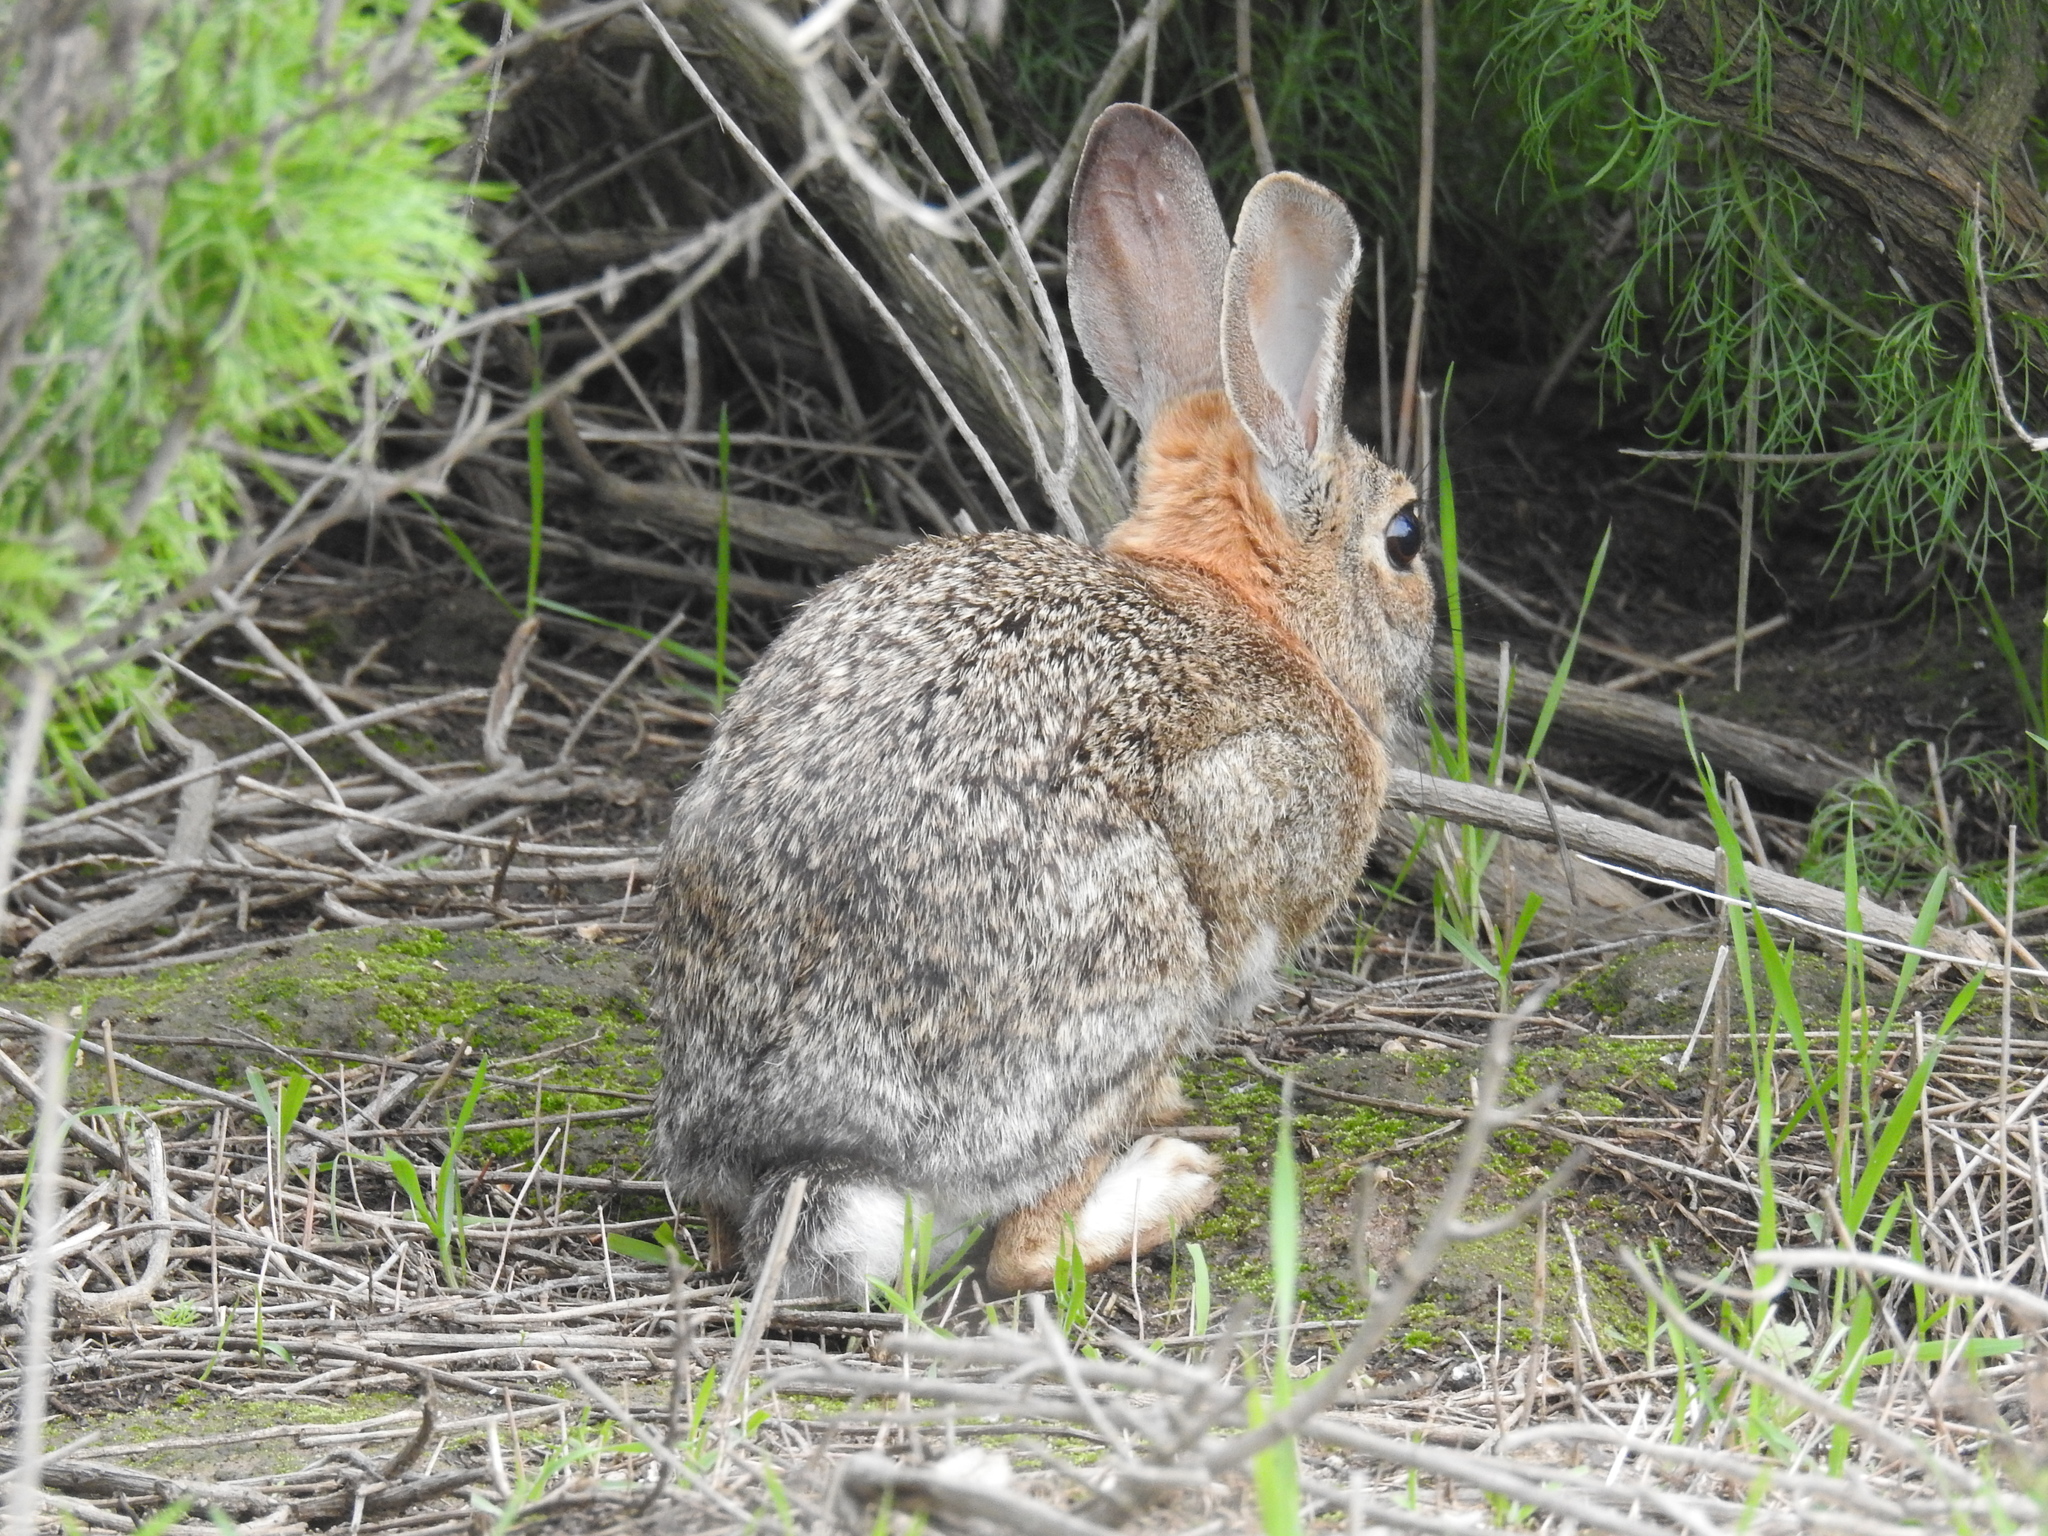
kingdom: Animalia
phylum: Chordata
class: Mammalia
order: Lagomorpha
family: Leporidae
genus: Sylvilagus
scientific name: Sylvilagus audubonii
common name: Desert cottontail
